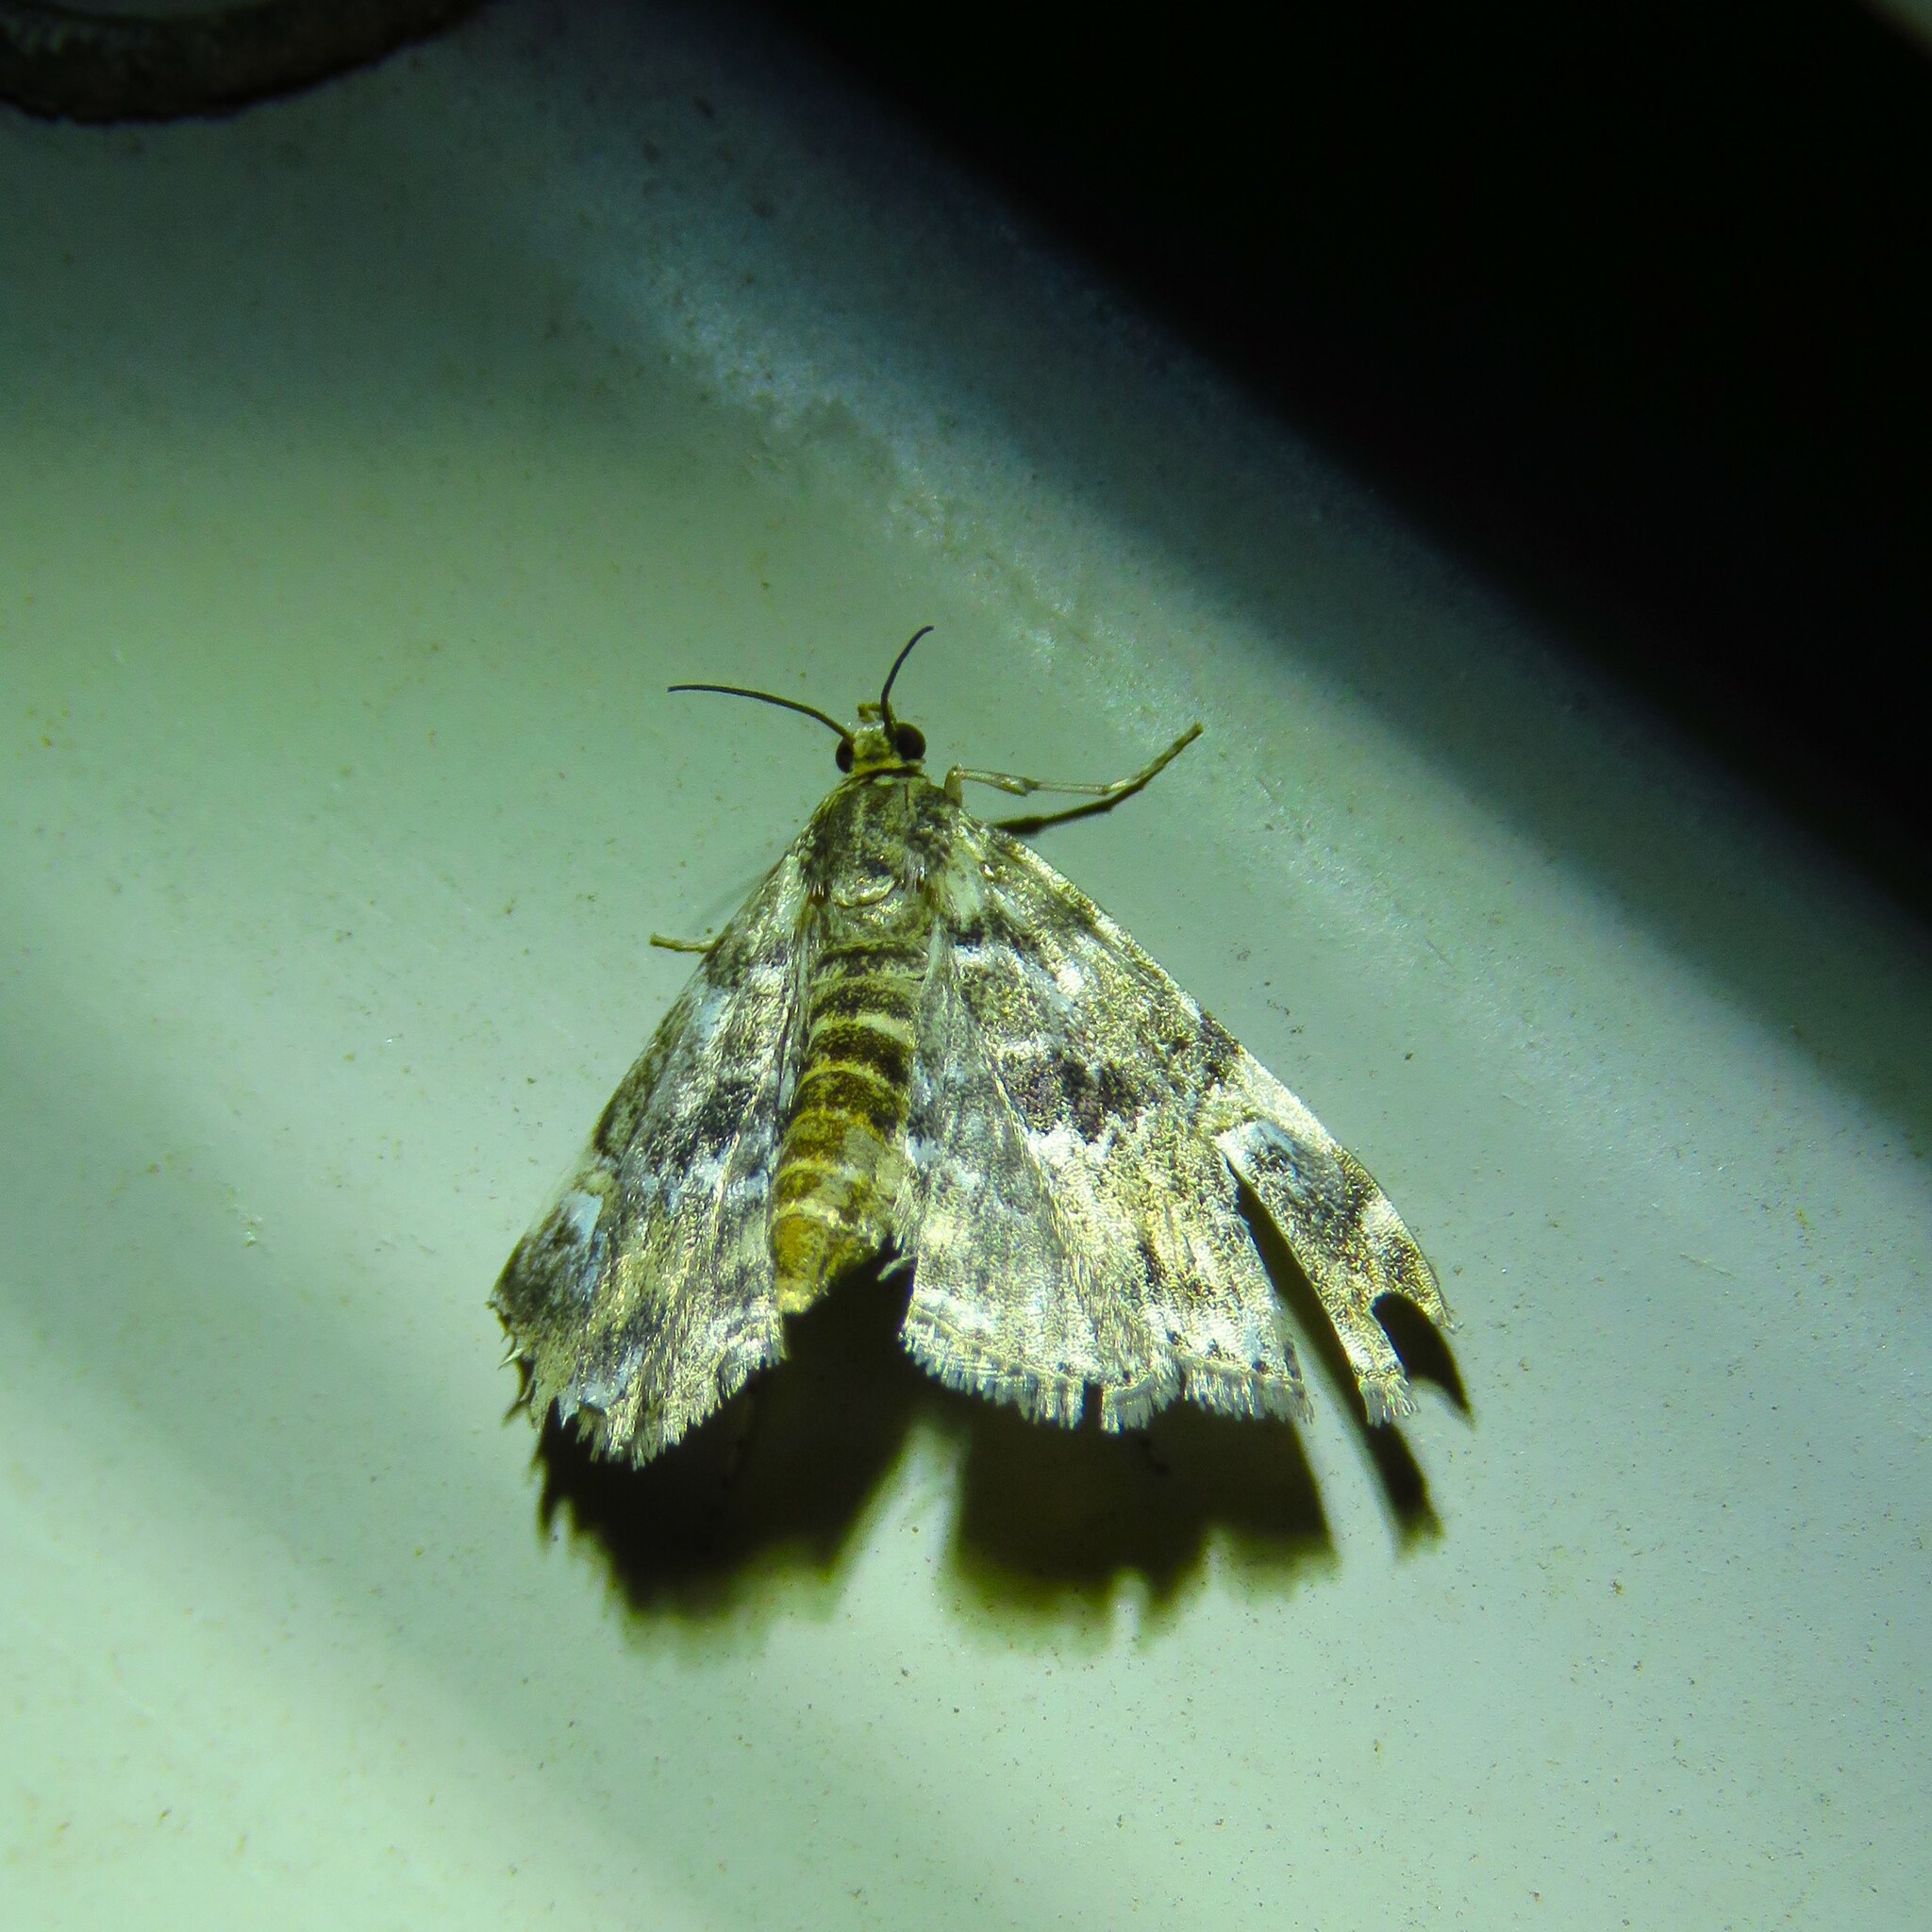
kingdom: Animalia
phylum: Arthropoda
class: Insecta
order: Lepidoptera
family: Crambidae
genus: Elophila
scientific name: Elophila obliteralis
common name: Waterlily leafcutter moth
